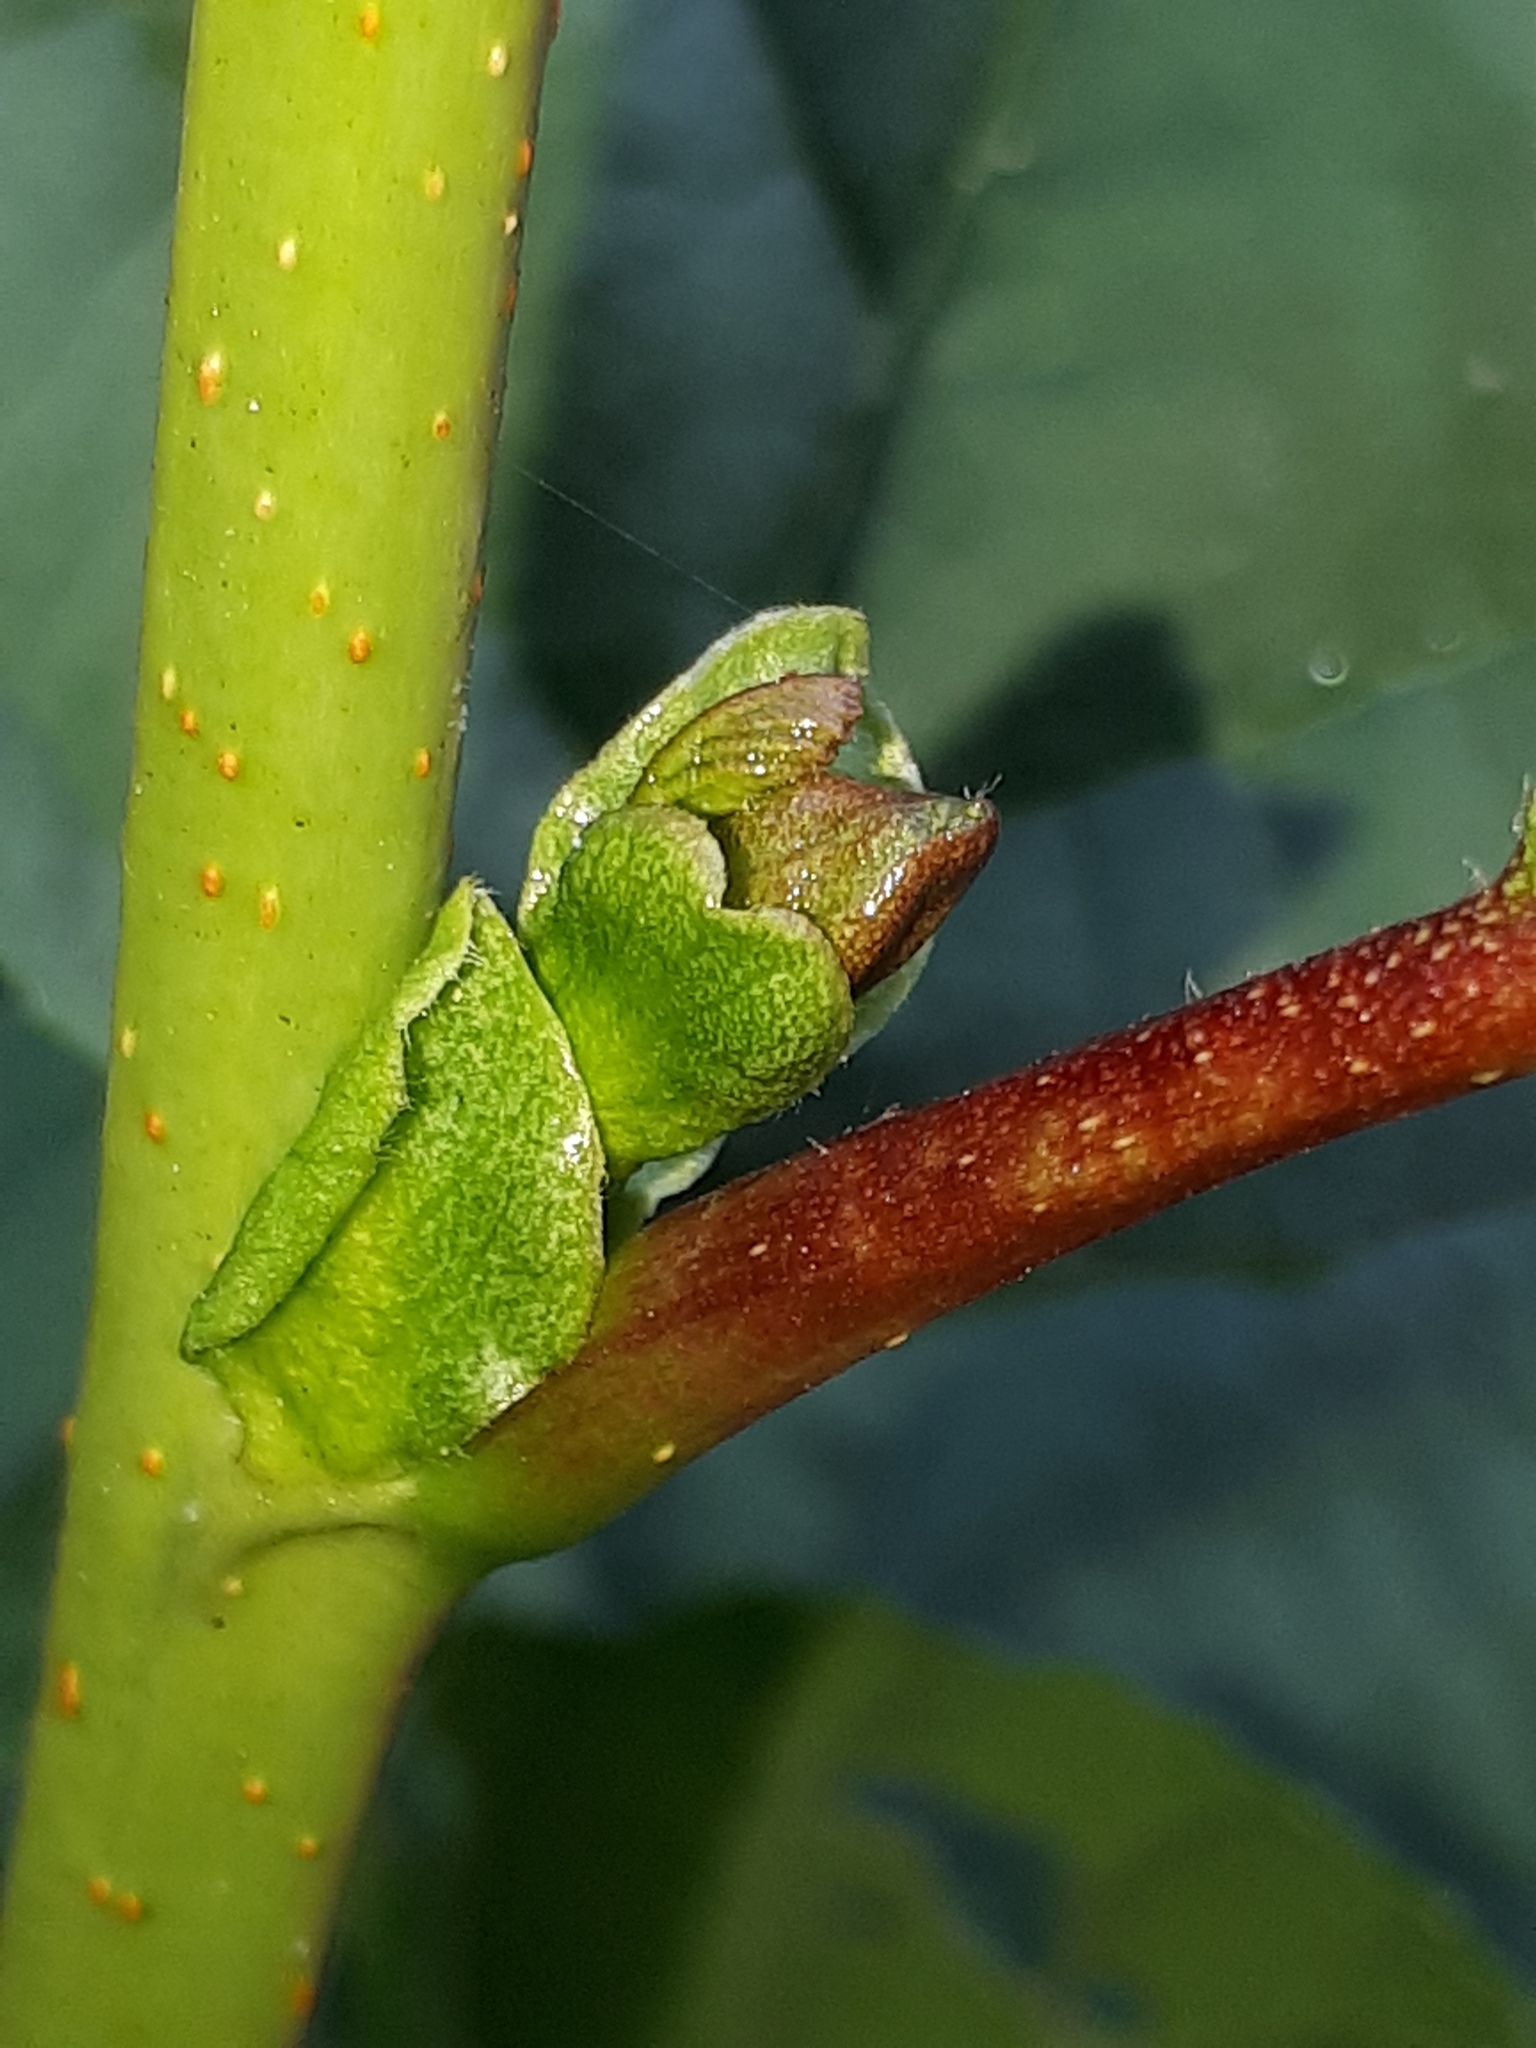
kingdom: Plantae
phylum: Tracheophyta
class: Magnoliopsida
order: Fagales
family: Betulaceae
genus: Alnus
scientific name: Alnus glutinosa
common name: Black alder
